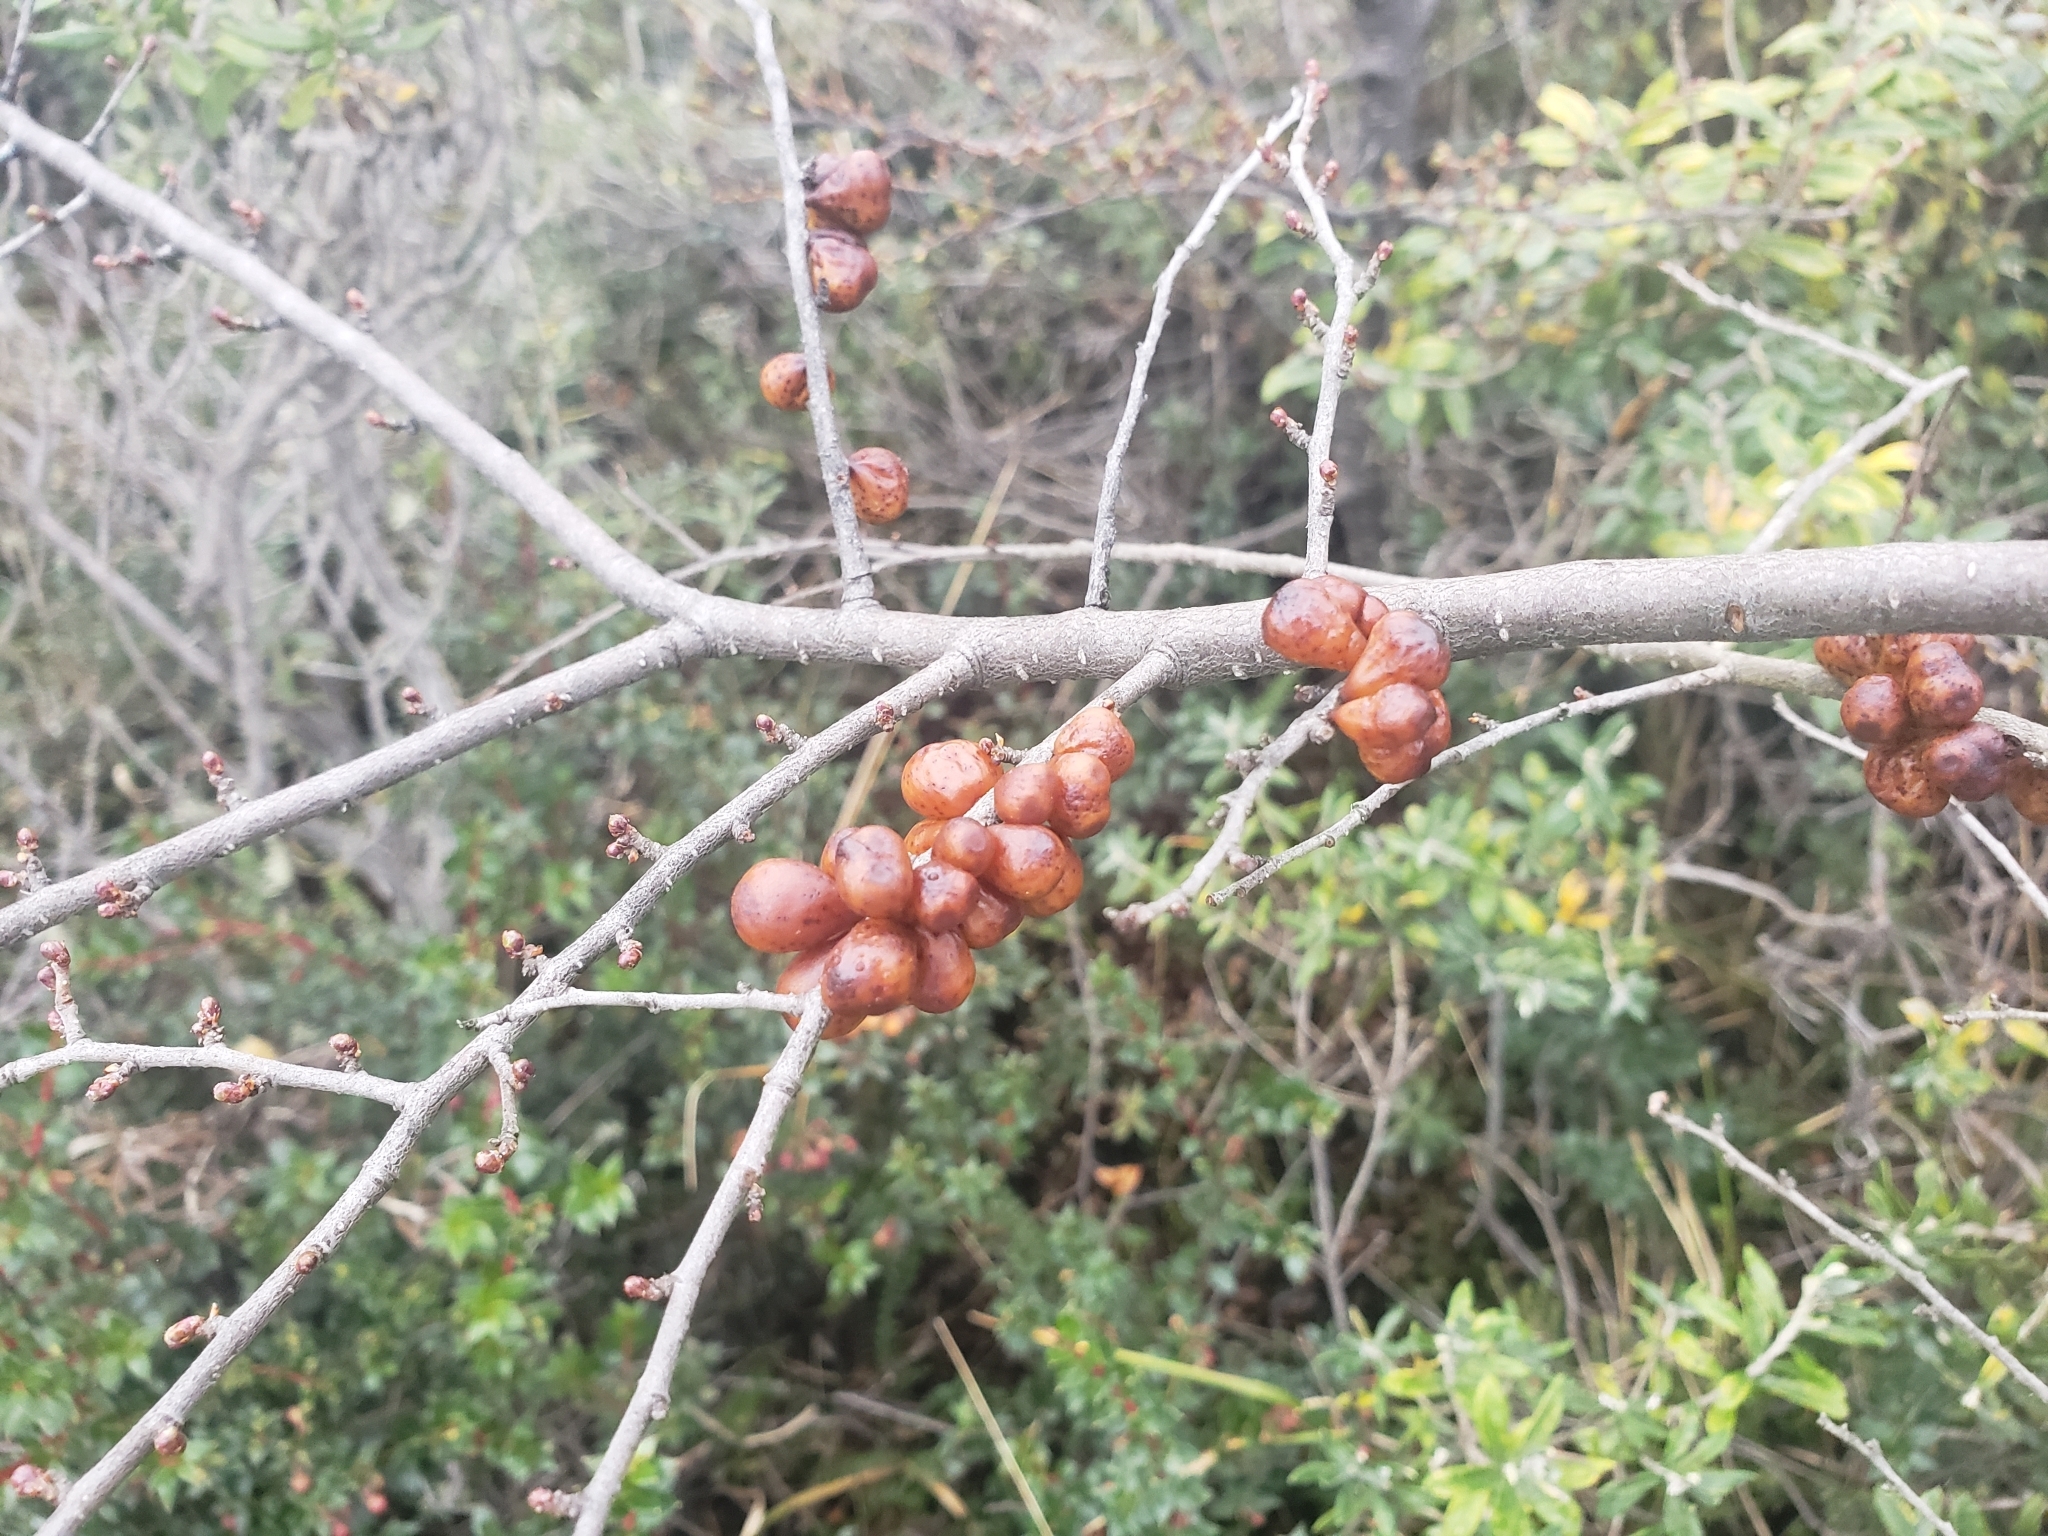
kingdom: Fungi
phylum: Ascomycota
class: Leotiomycetes
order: Cyttariales
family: Cyttariaceae
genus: Cyttaria
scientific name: Cyttaria hookeri
